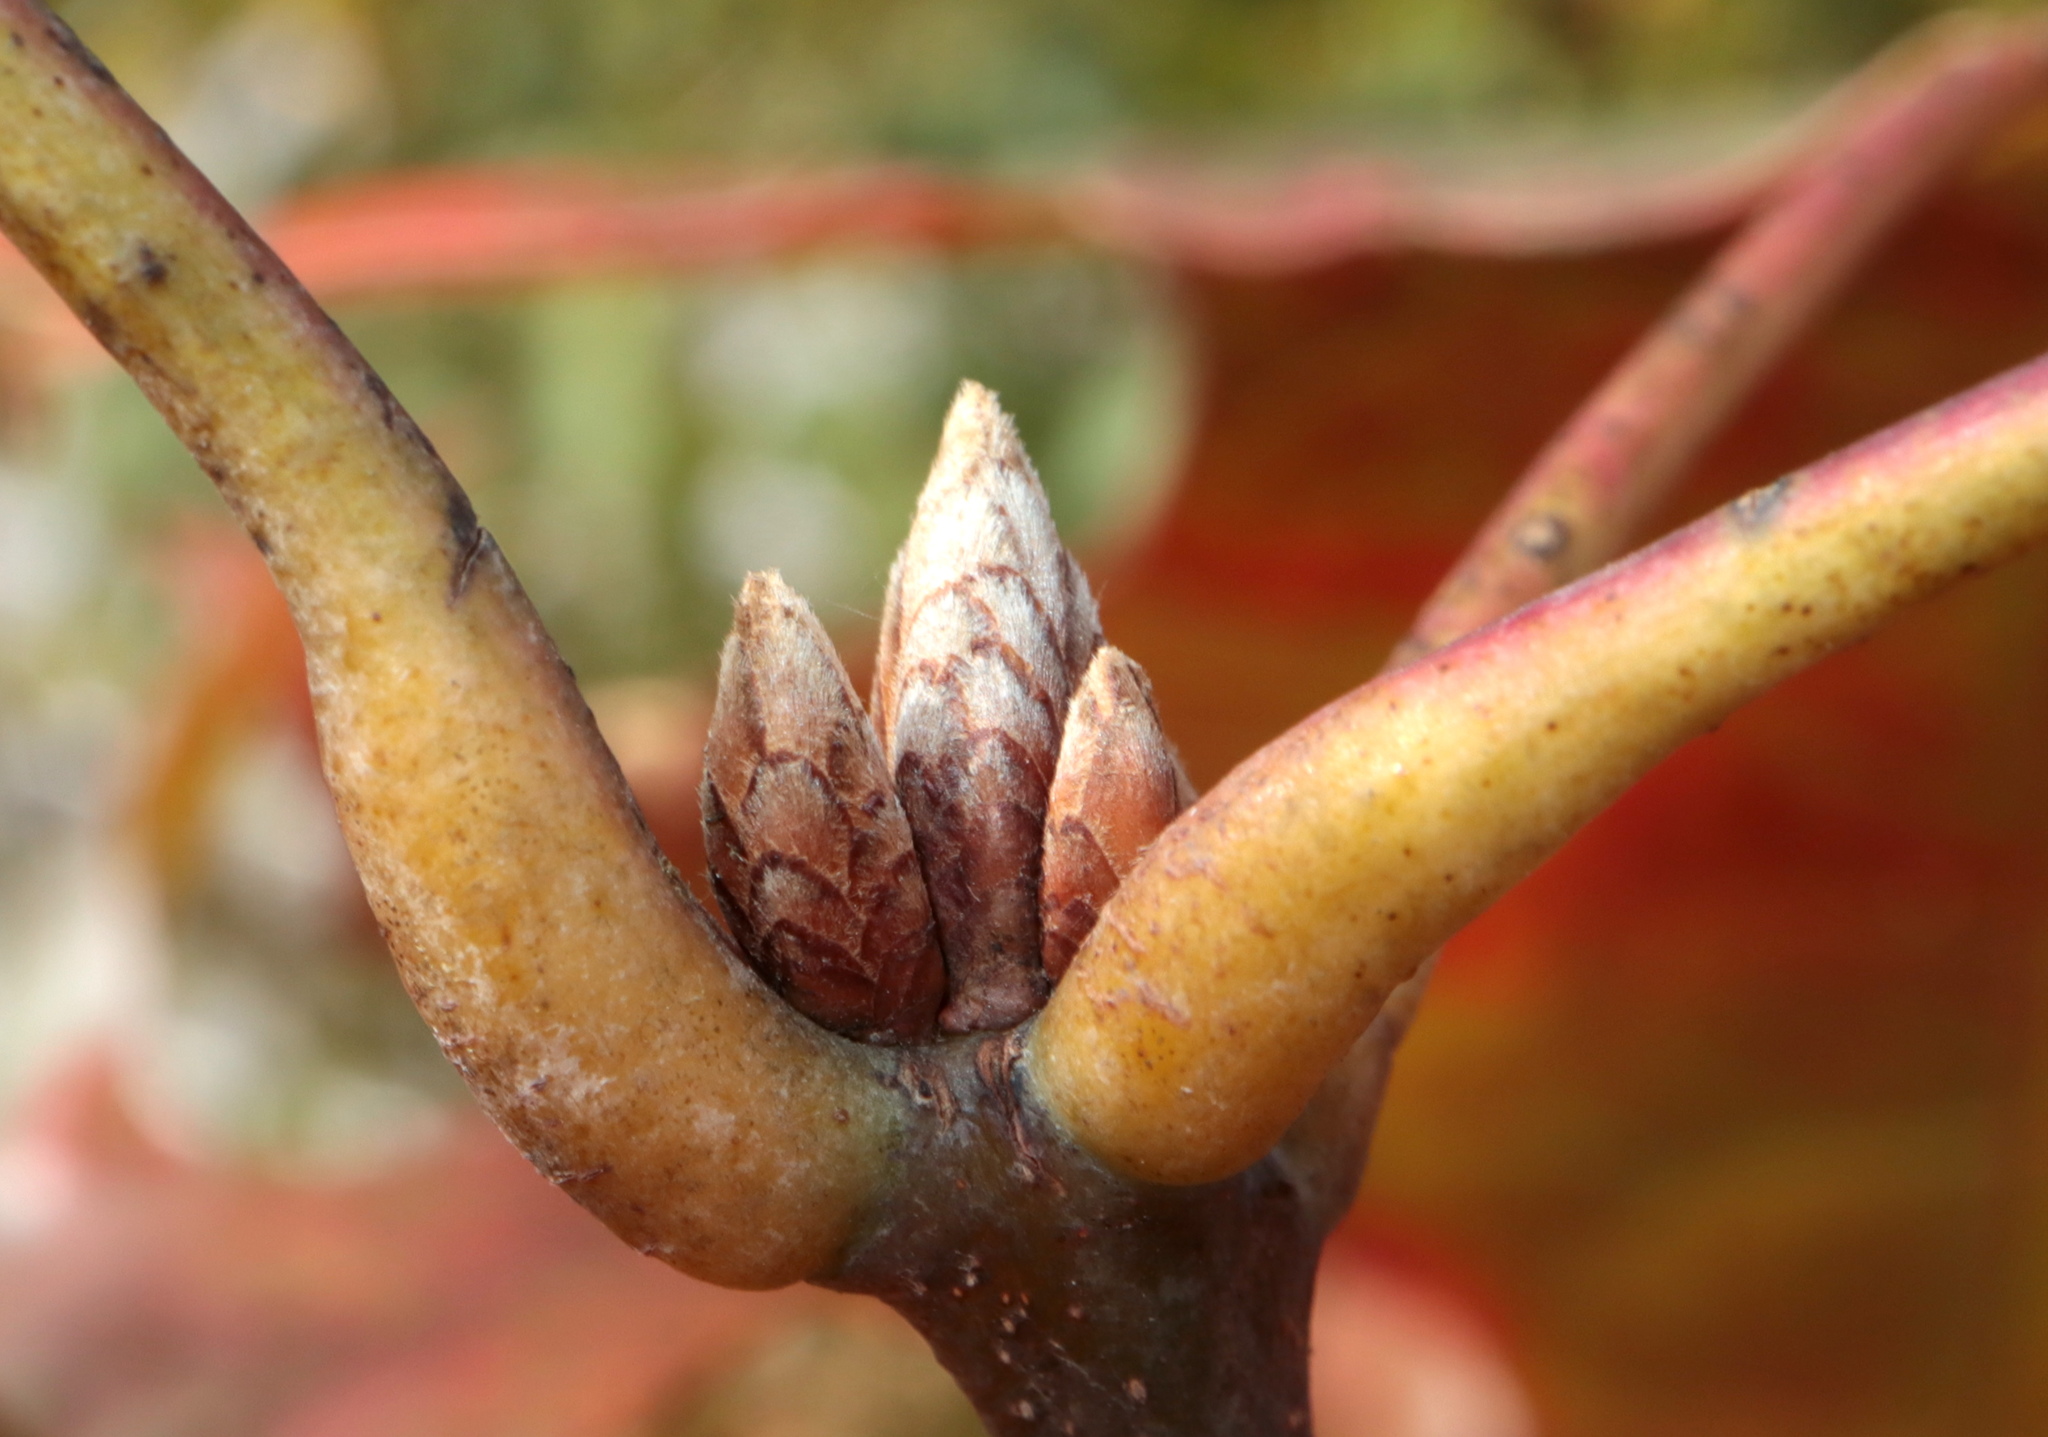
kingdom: Plantae
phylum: Tracheophyta
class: Magnoliopsida
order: Fagales
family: Fagaceae
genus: Quercus
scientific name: Quercus coccinea
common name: Scarlet oak
